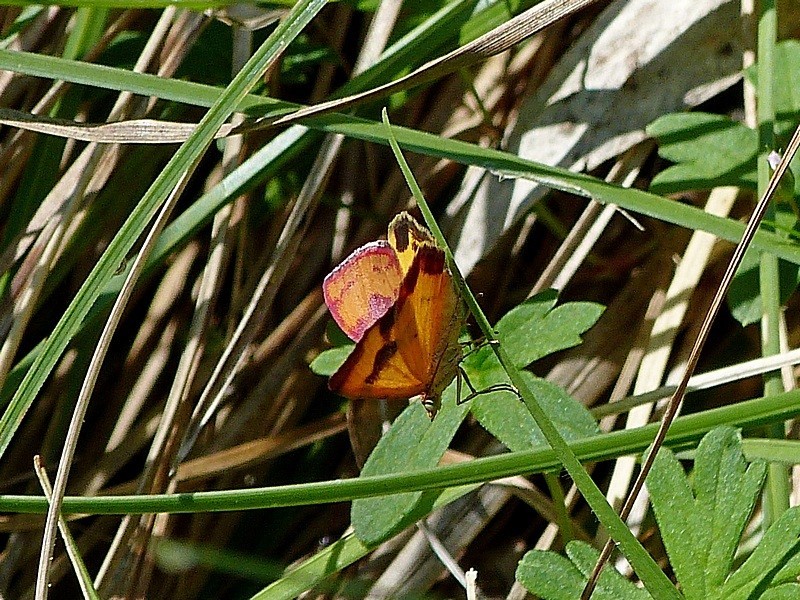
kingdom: Animalia
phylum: Arthropoda
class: Insecta
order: Lepidoptera
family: Geometridae
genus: Chrysolarentia
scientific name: Chrysolarentia perornata
